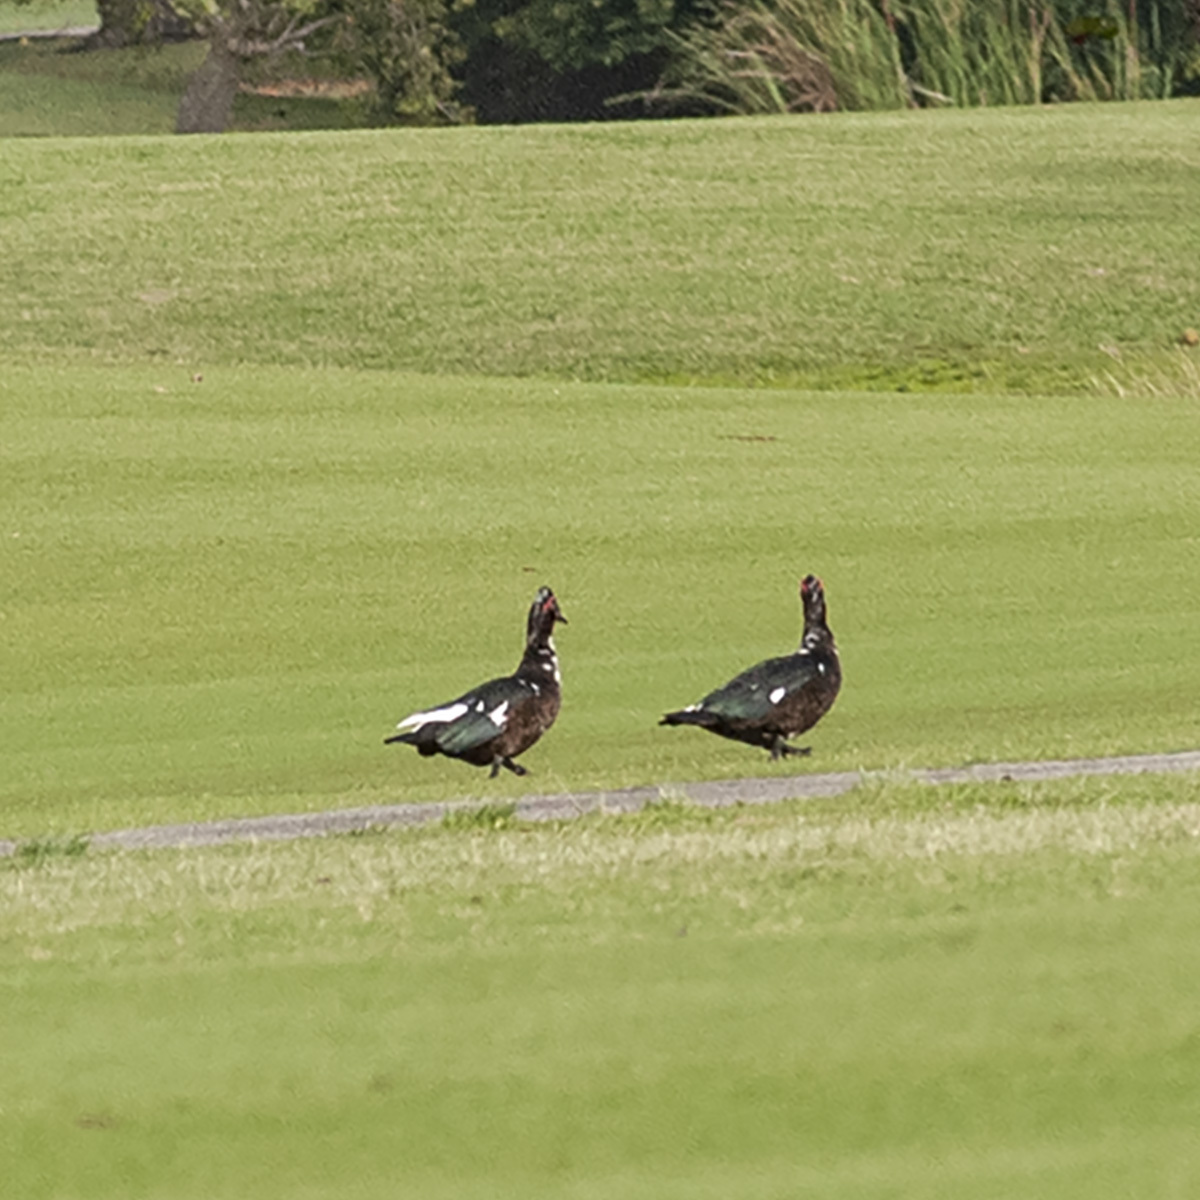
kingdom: Animalia
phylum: Chordata
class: Aves
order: Anseriformes
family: Anatidae
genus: Cairina
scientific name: Cairina moschata
